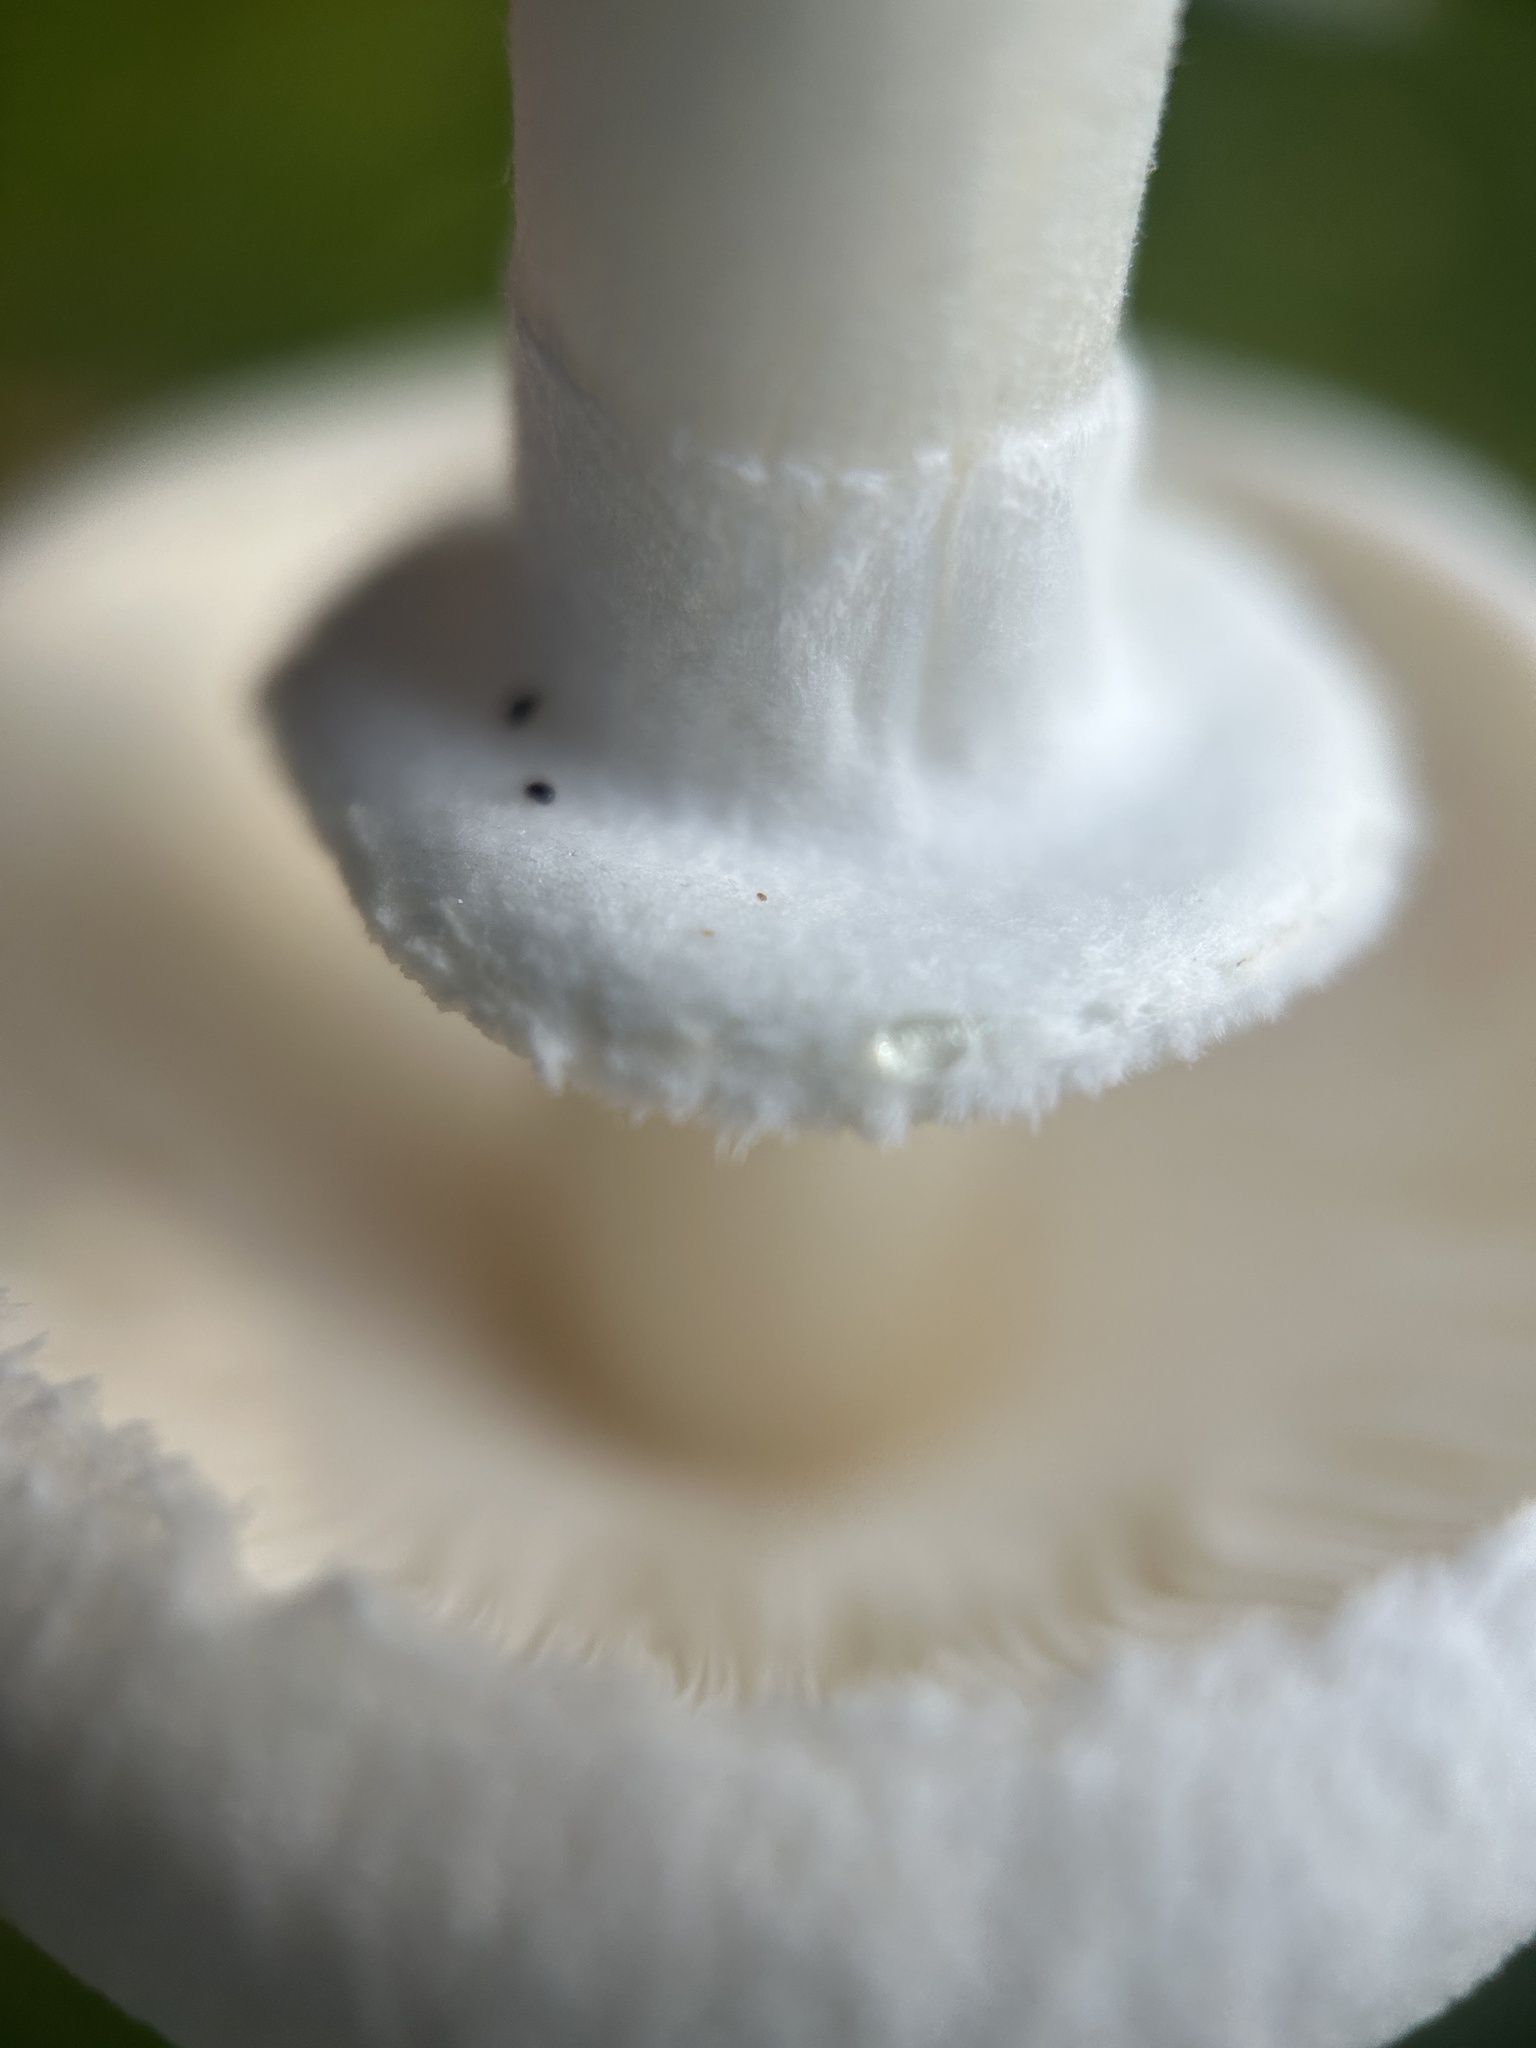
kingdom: Fungi
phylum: Basidiomycota
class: Agaricomycetes
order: Agaricales
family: Agaricaceae
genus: Leucoagaricus
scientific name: Leucoagaricus leucothites
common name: White dapperling
